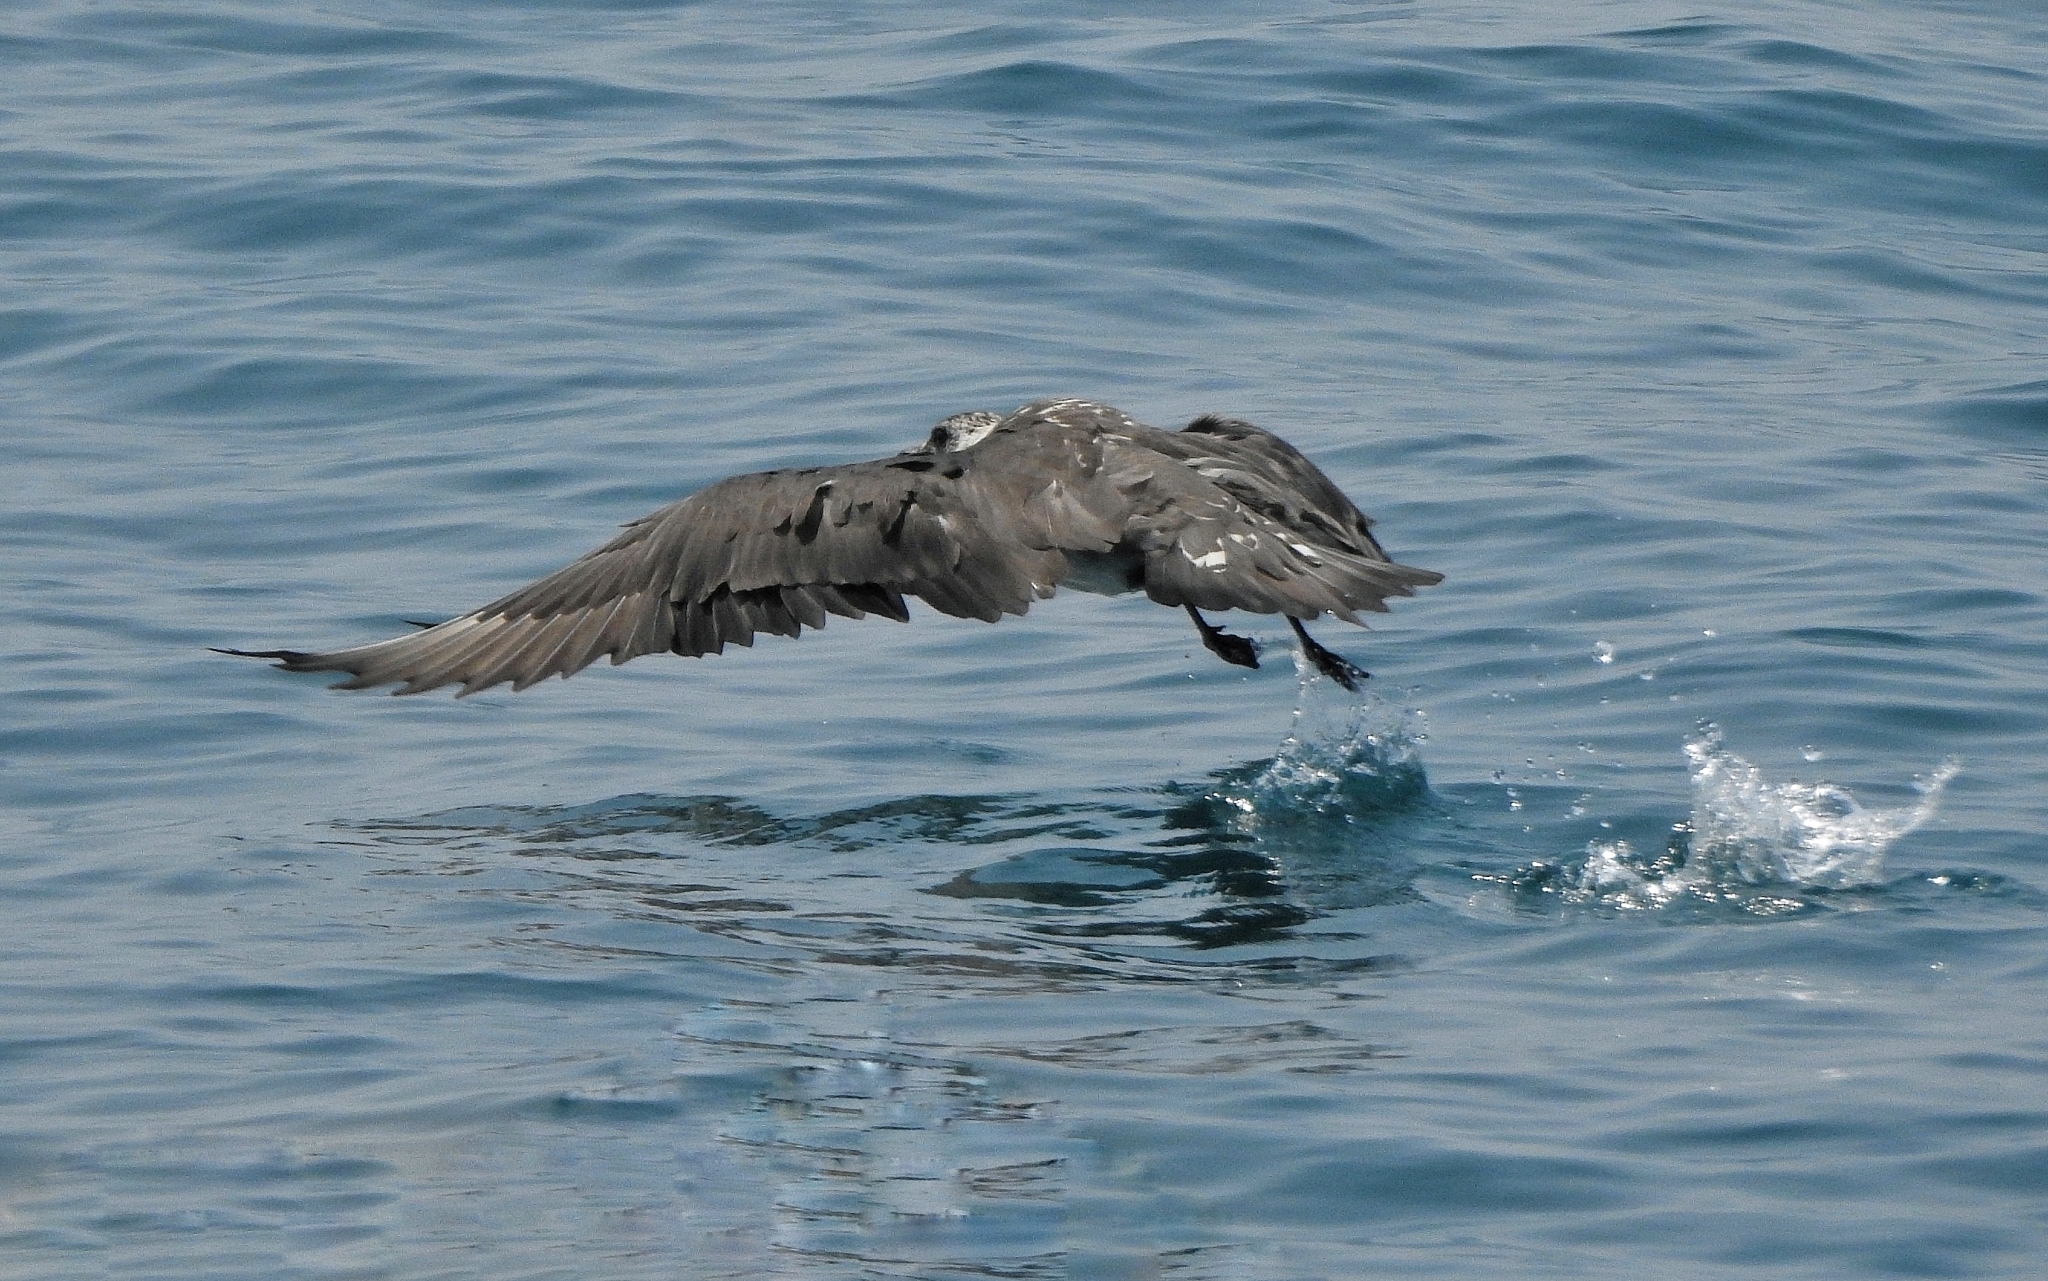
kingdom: Animalia
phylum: Chordata
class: Aves
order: Charadriiformes
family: Stercorariidae
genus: Stercorarius
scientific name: Stercorarius parasiticus
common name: Parasitic jaeger
